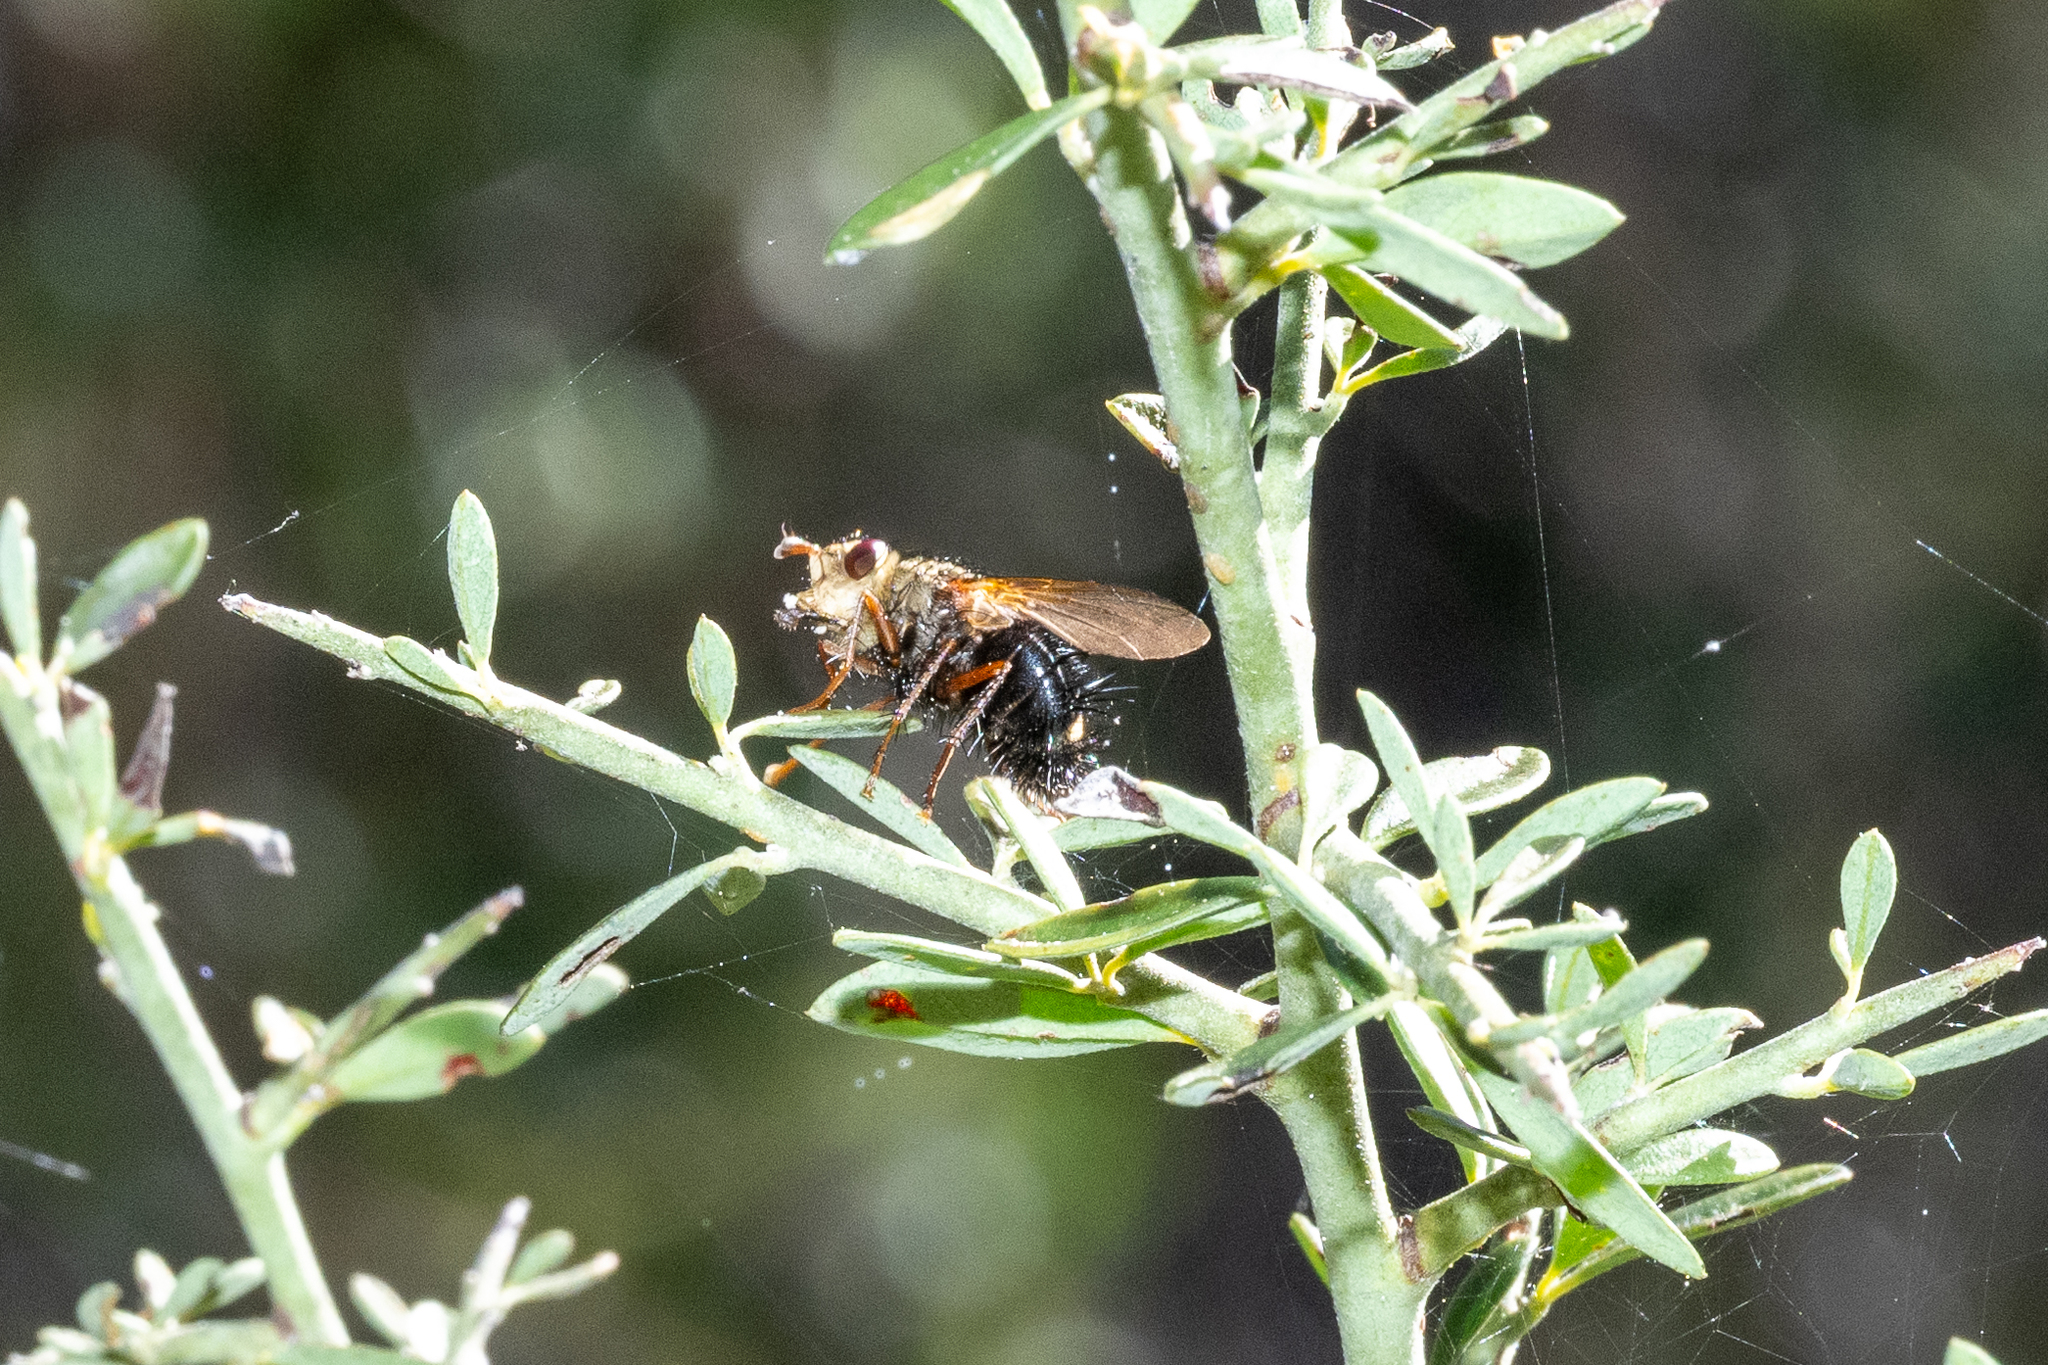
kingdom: Animalia
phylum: Arthropoda
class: Insecta
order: Diptera
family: Tachinidae
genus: Epalpus
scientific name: Epalpus signifer
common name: Early tachinid fly
